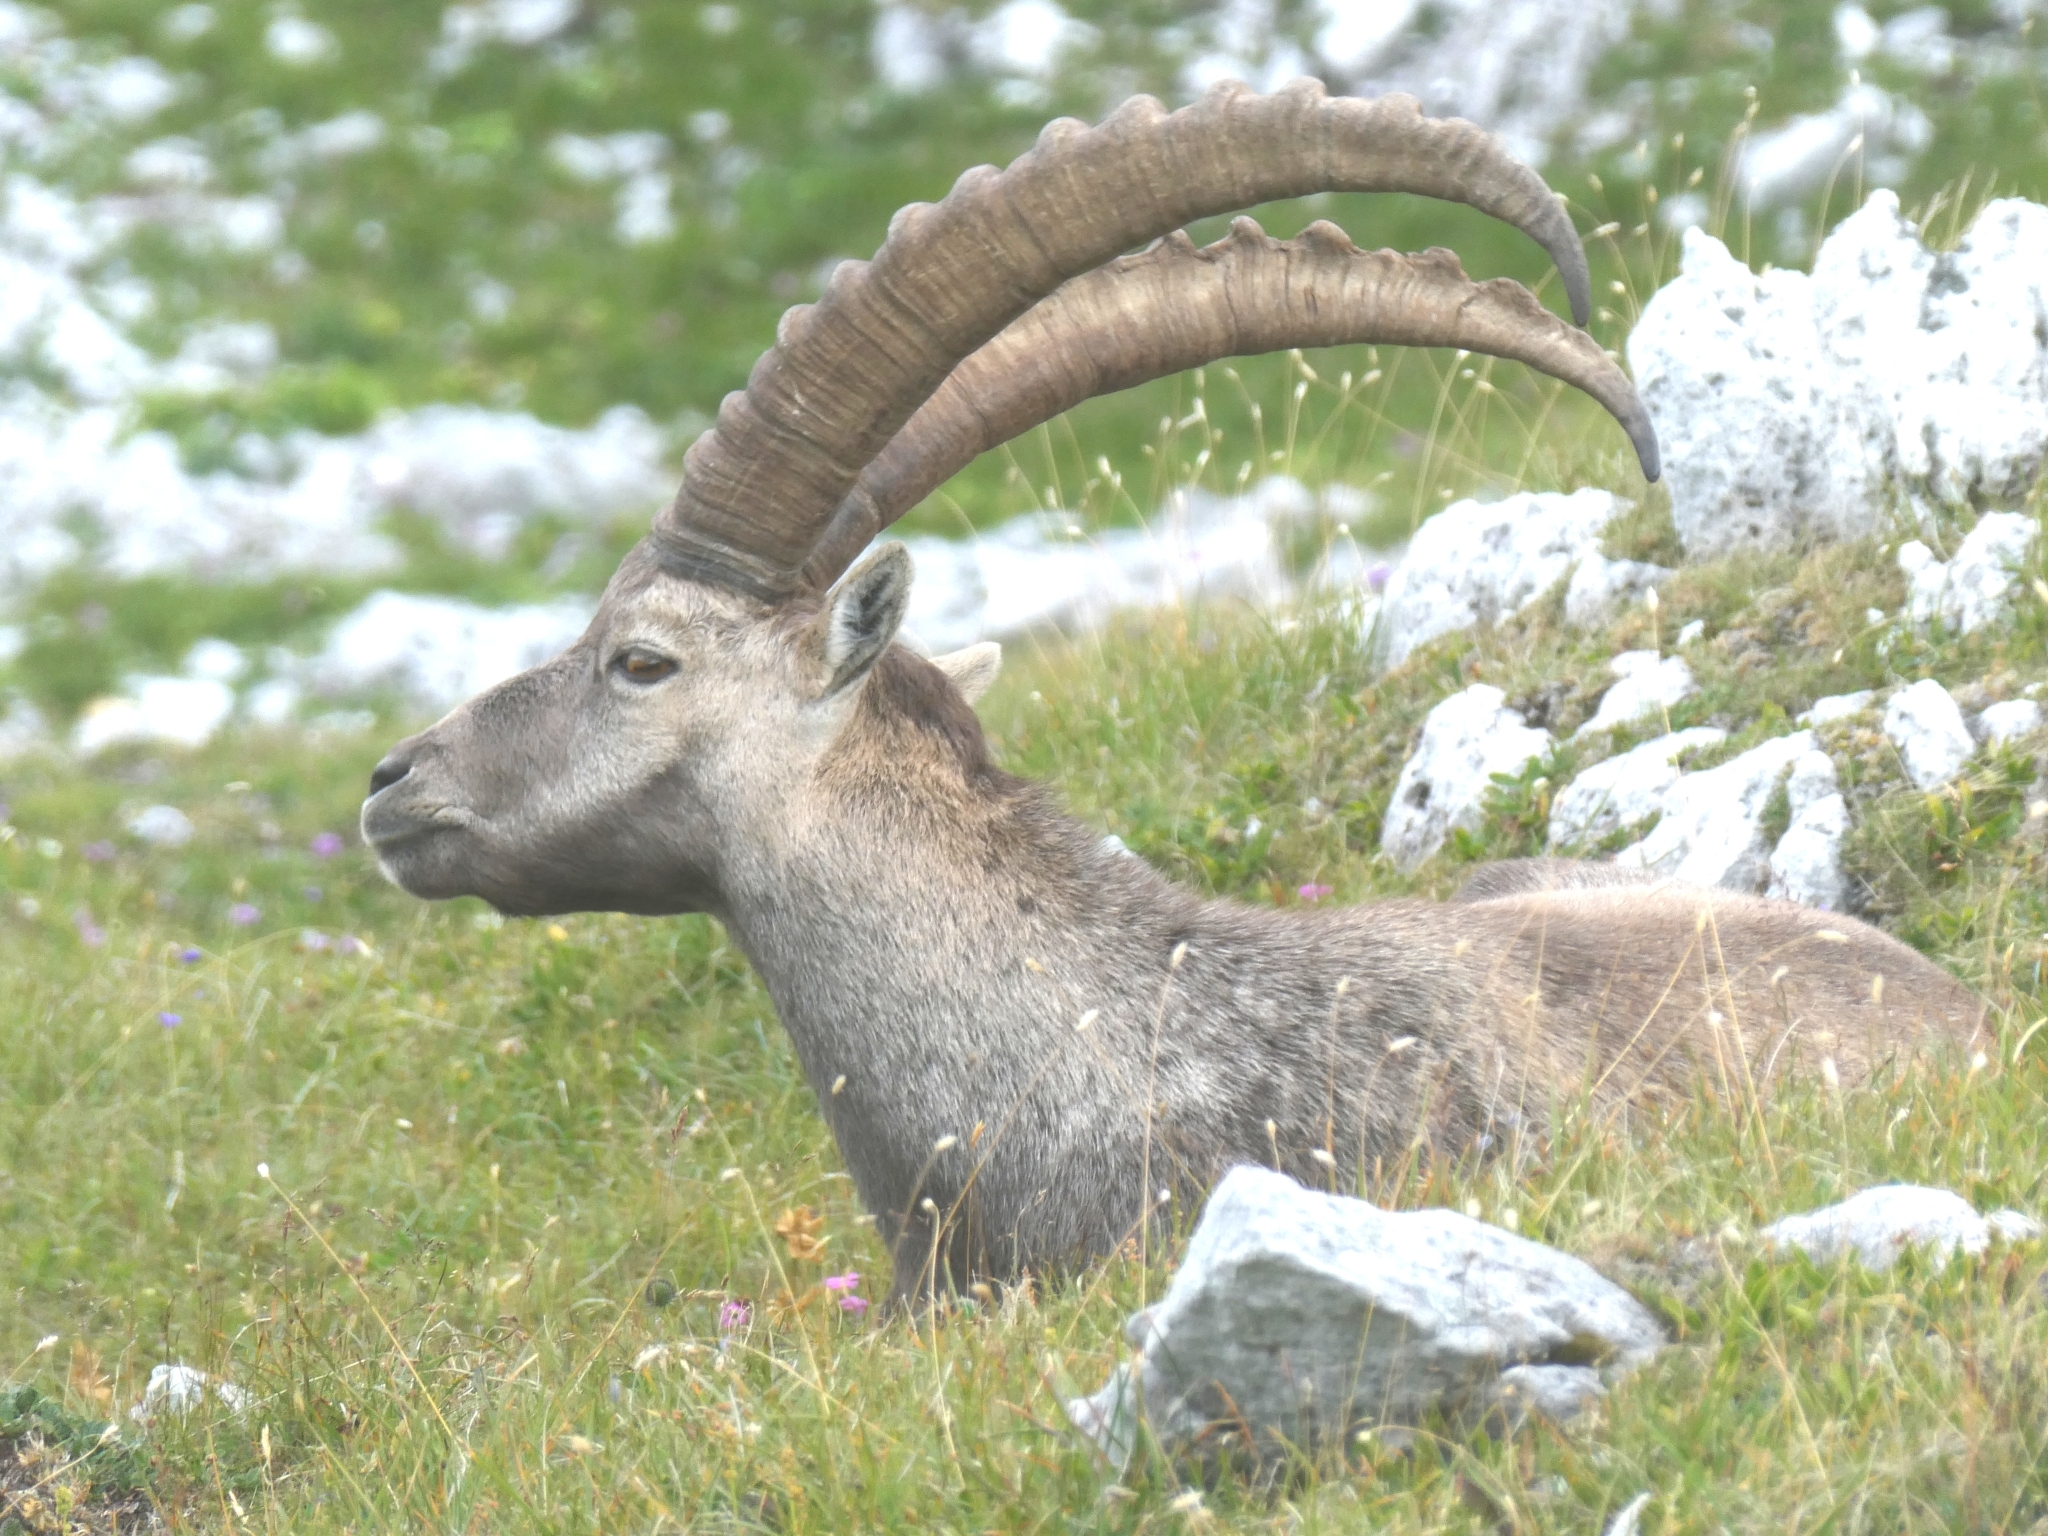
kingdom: Animalia
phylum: Chordata
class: Mammalia
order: Artiodactyla
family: Bovidae
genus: Capra
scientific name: Capra ibex
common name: Alpine ibex
